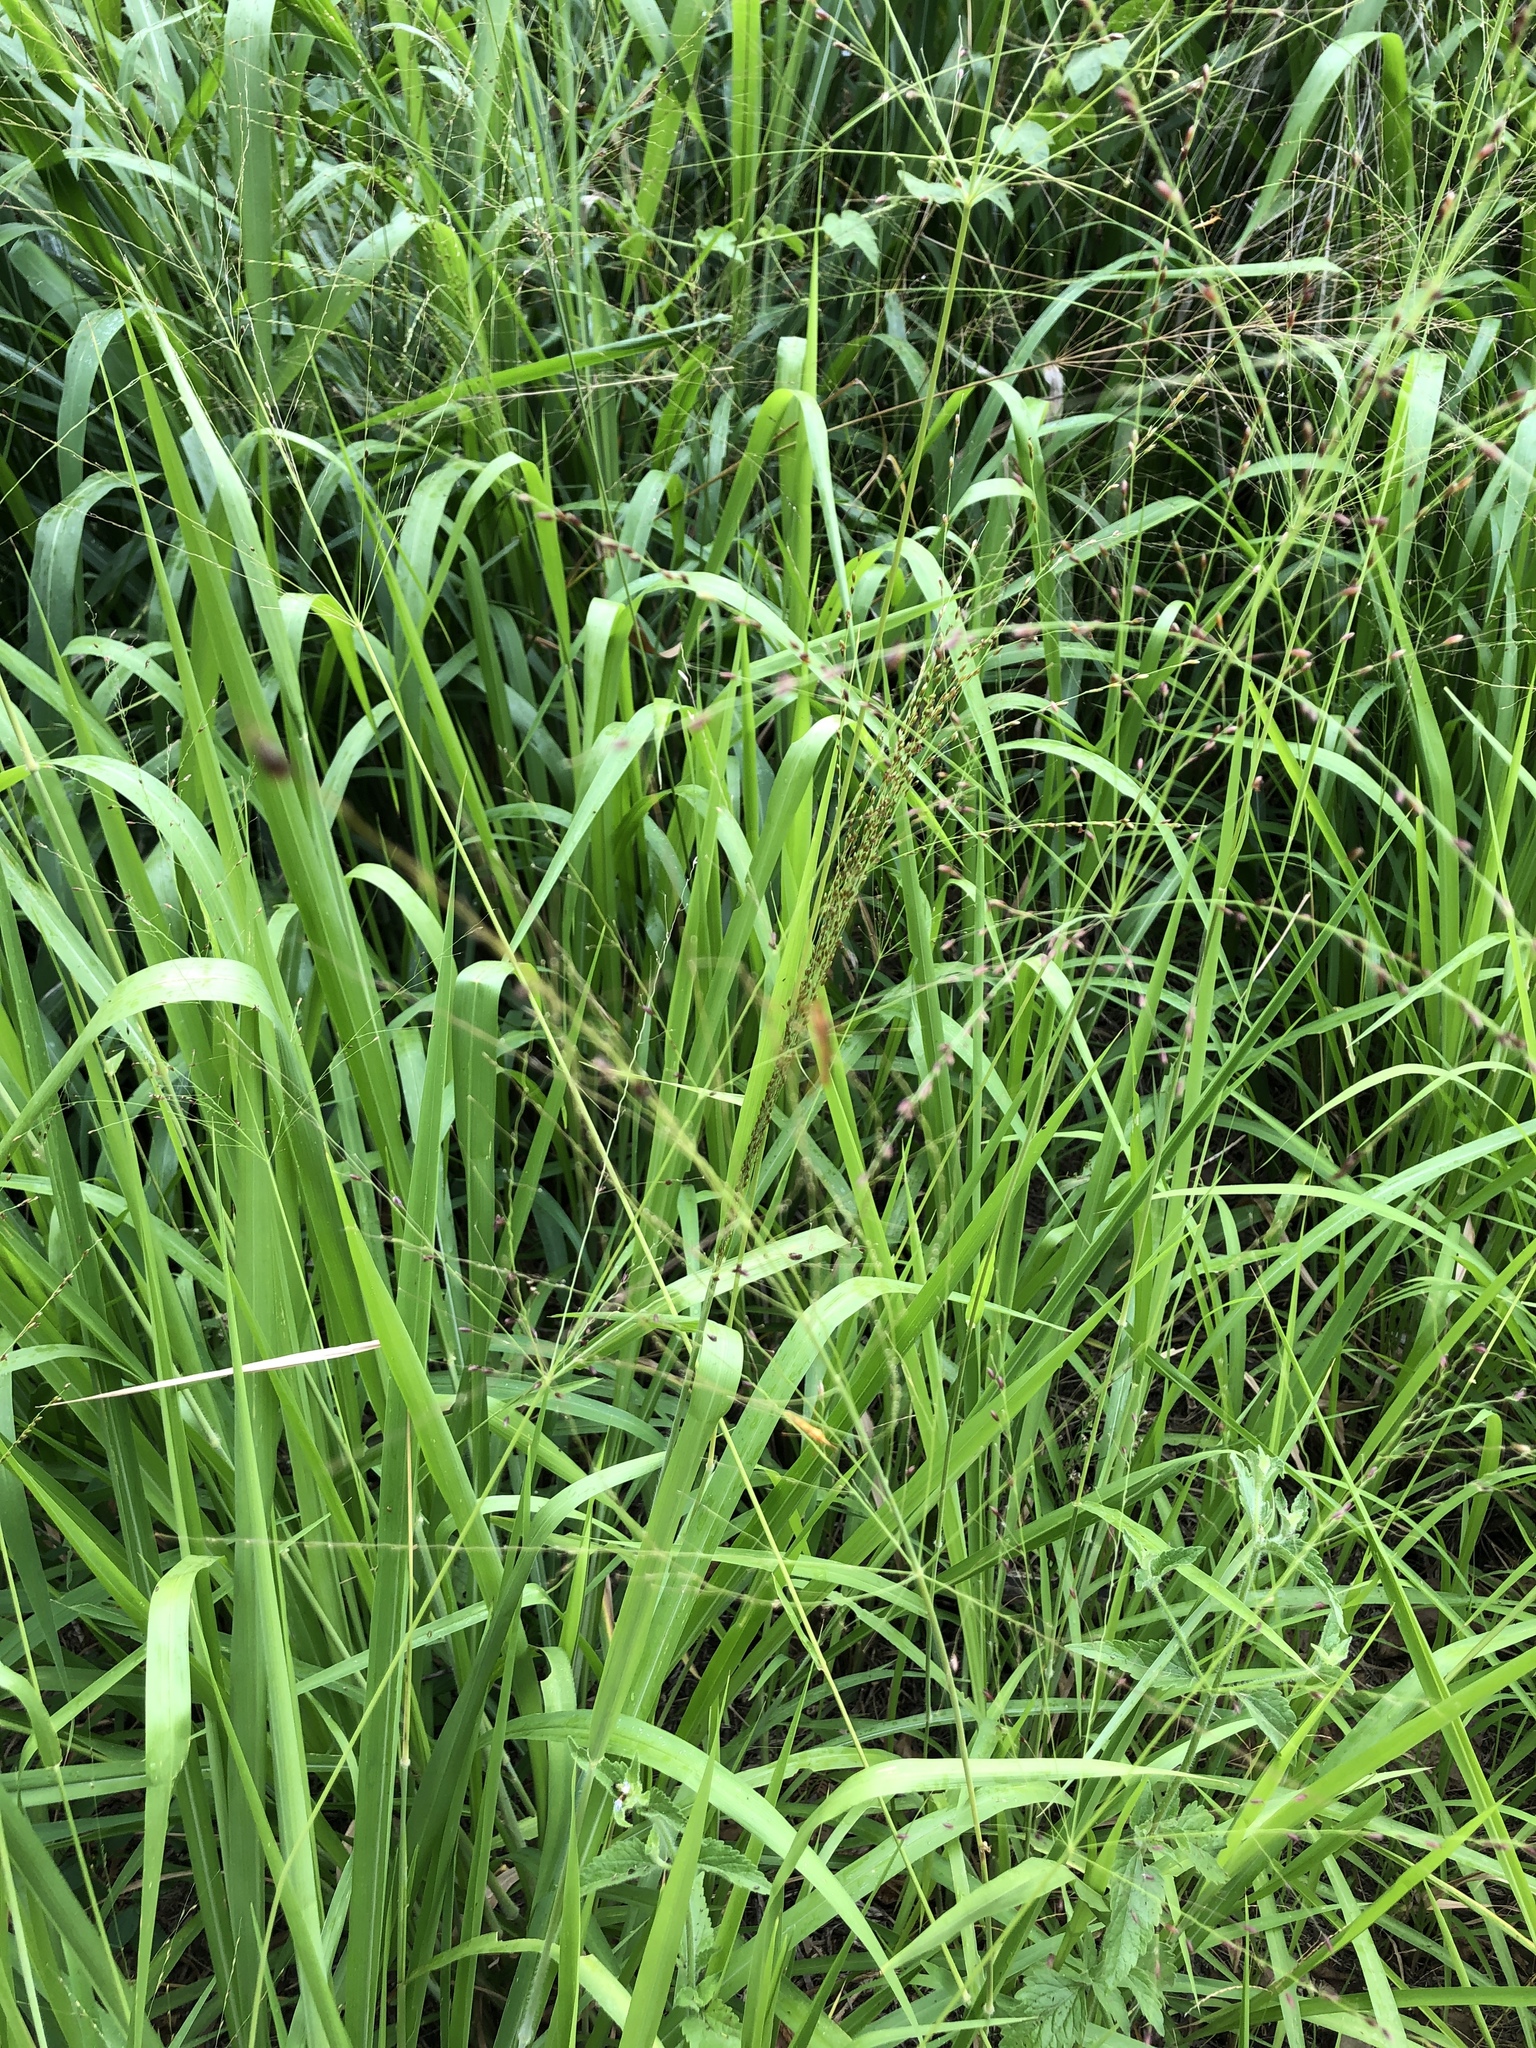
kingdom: Plantae
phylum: Tracheophyta
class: Liliopsida
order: Poales
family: Poaceae
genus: Megathyrsus
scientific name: Megathyrsus maximus
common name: Guineagrass
